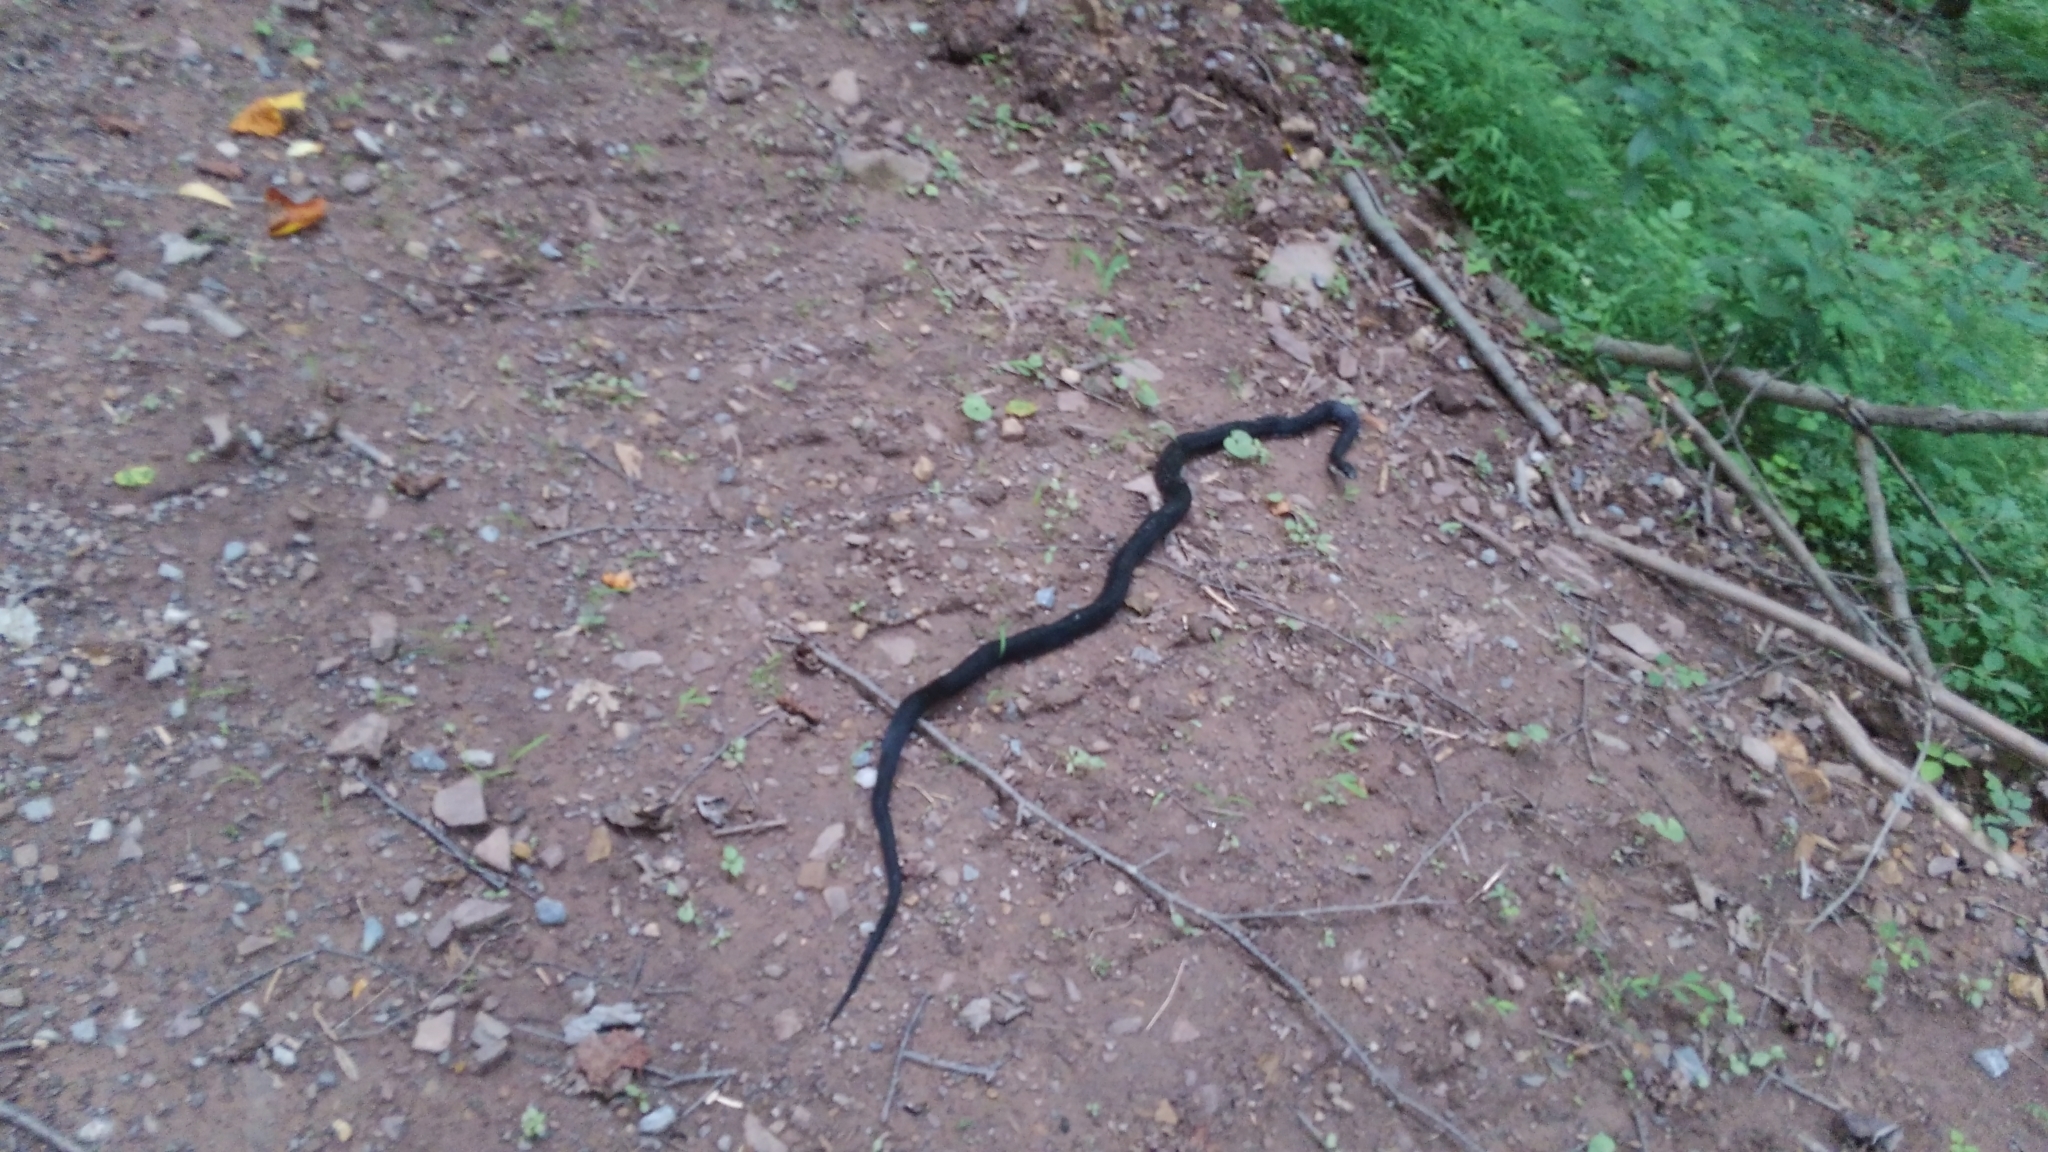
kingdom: Animalia
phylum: Chordata
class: Squamata
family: Colubridae
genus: Pantherophis
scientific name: Pantherophis alleghaniensis
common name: Eastern rat snake
